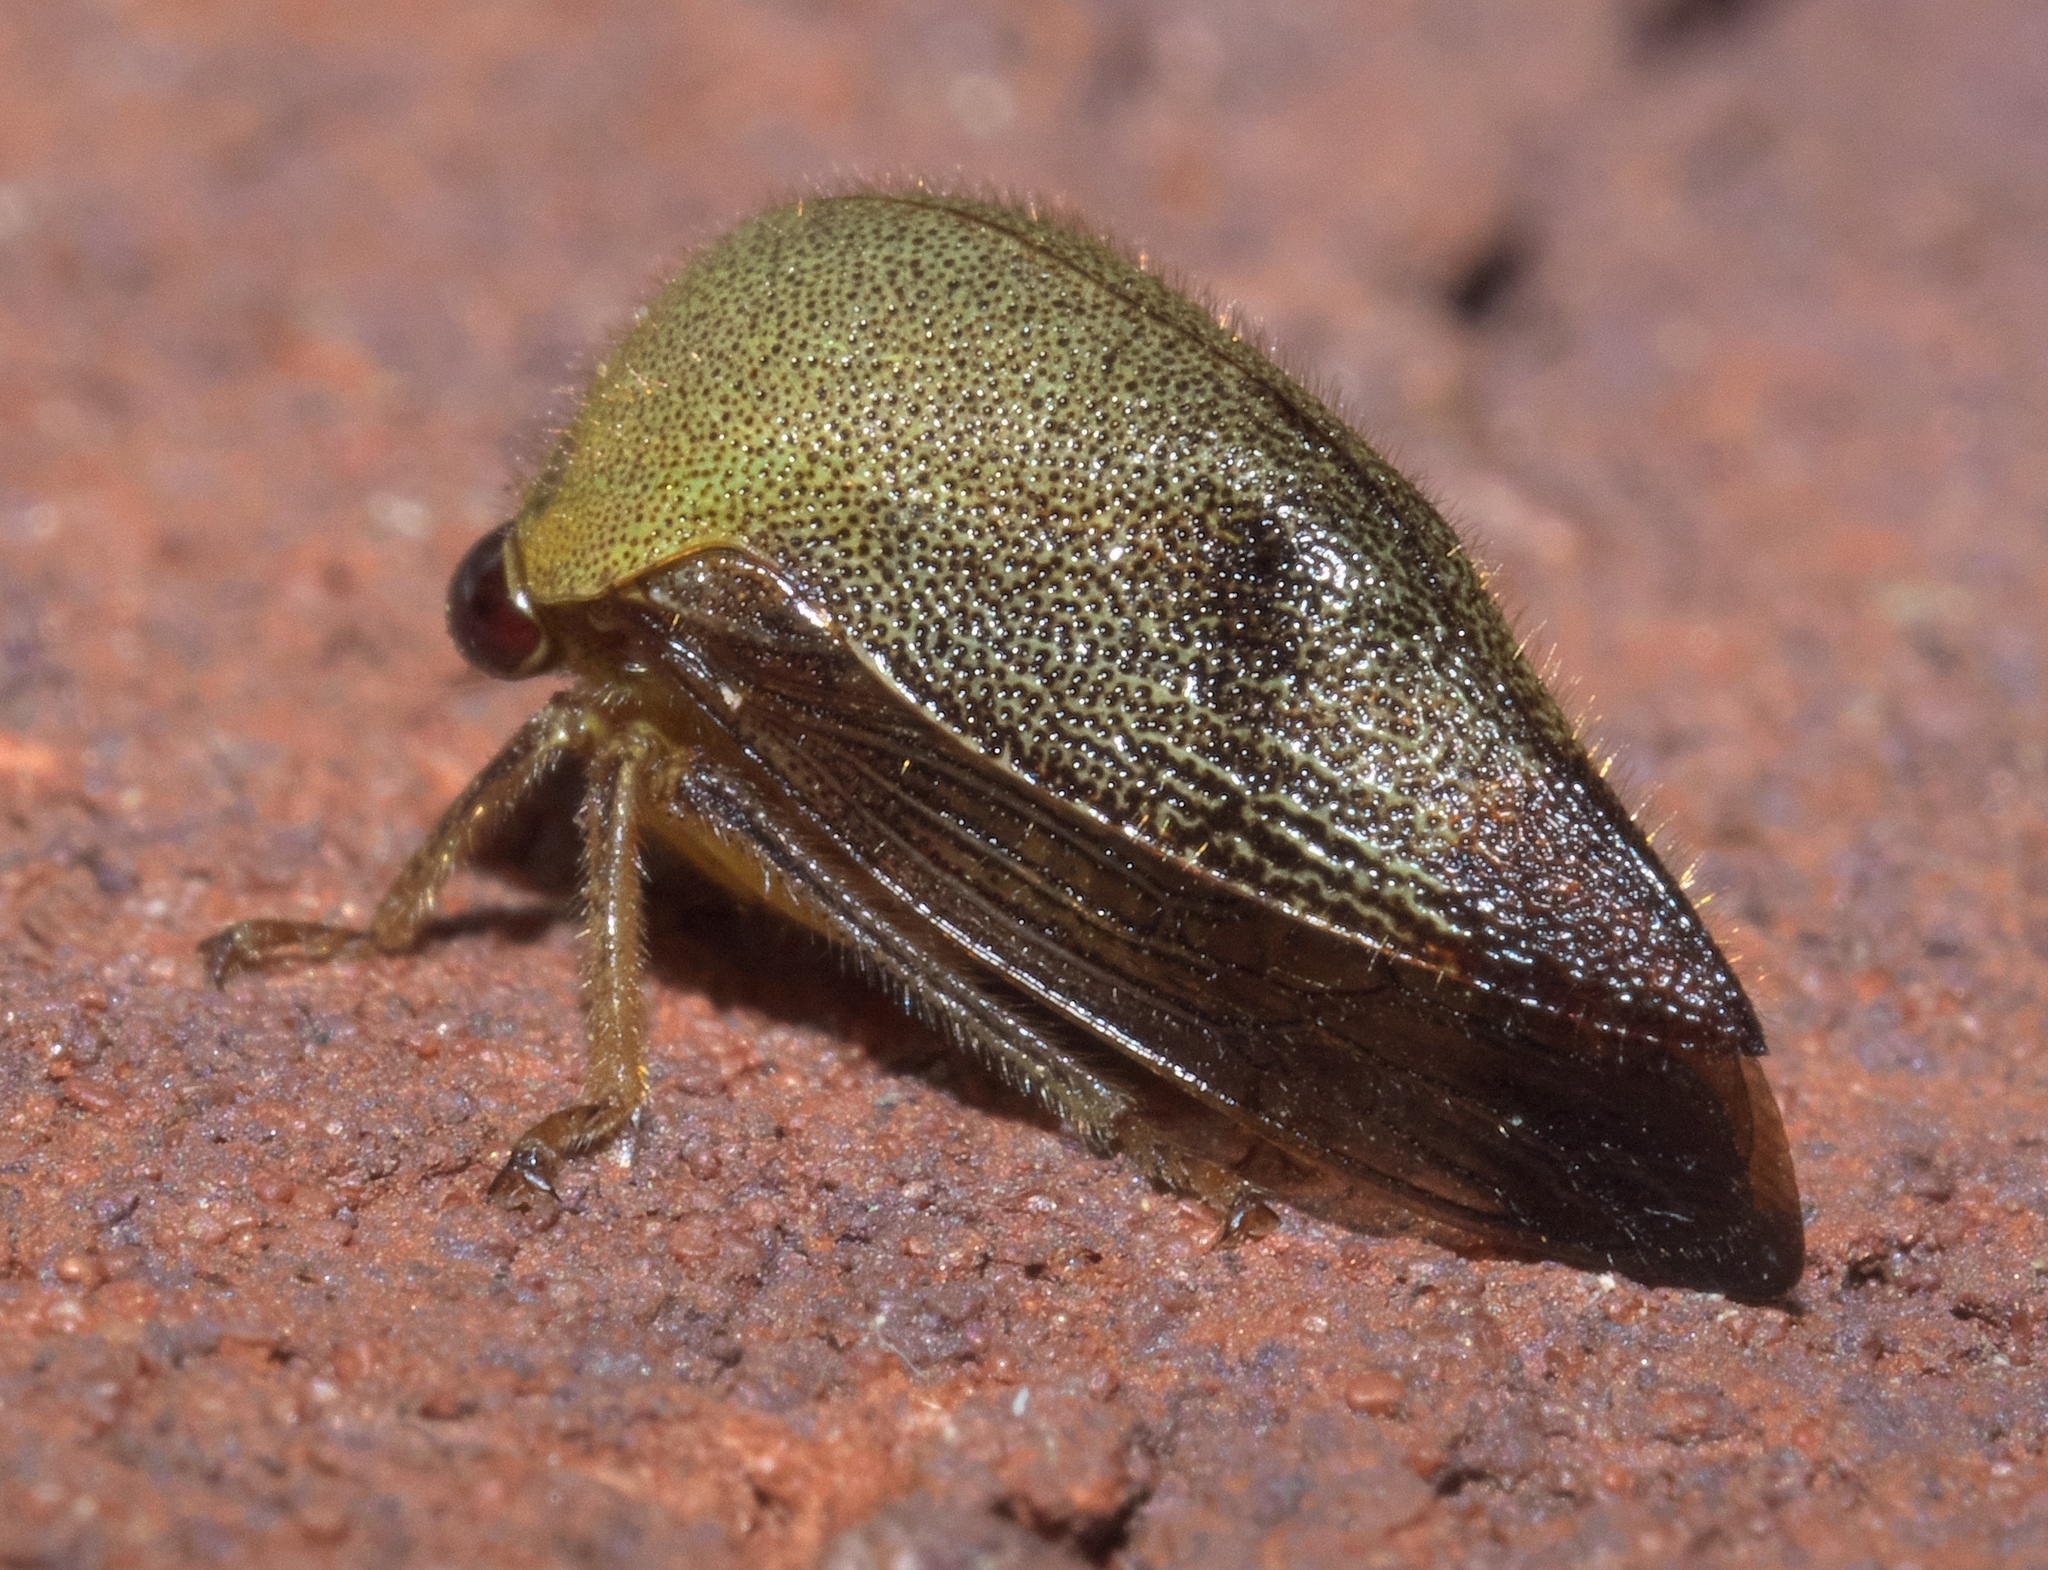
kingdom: Animalia
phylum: Arthropoda
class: Insecta
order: Hemiptera
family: Membracidae
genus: Carynota
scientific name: Carynota mera
